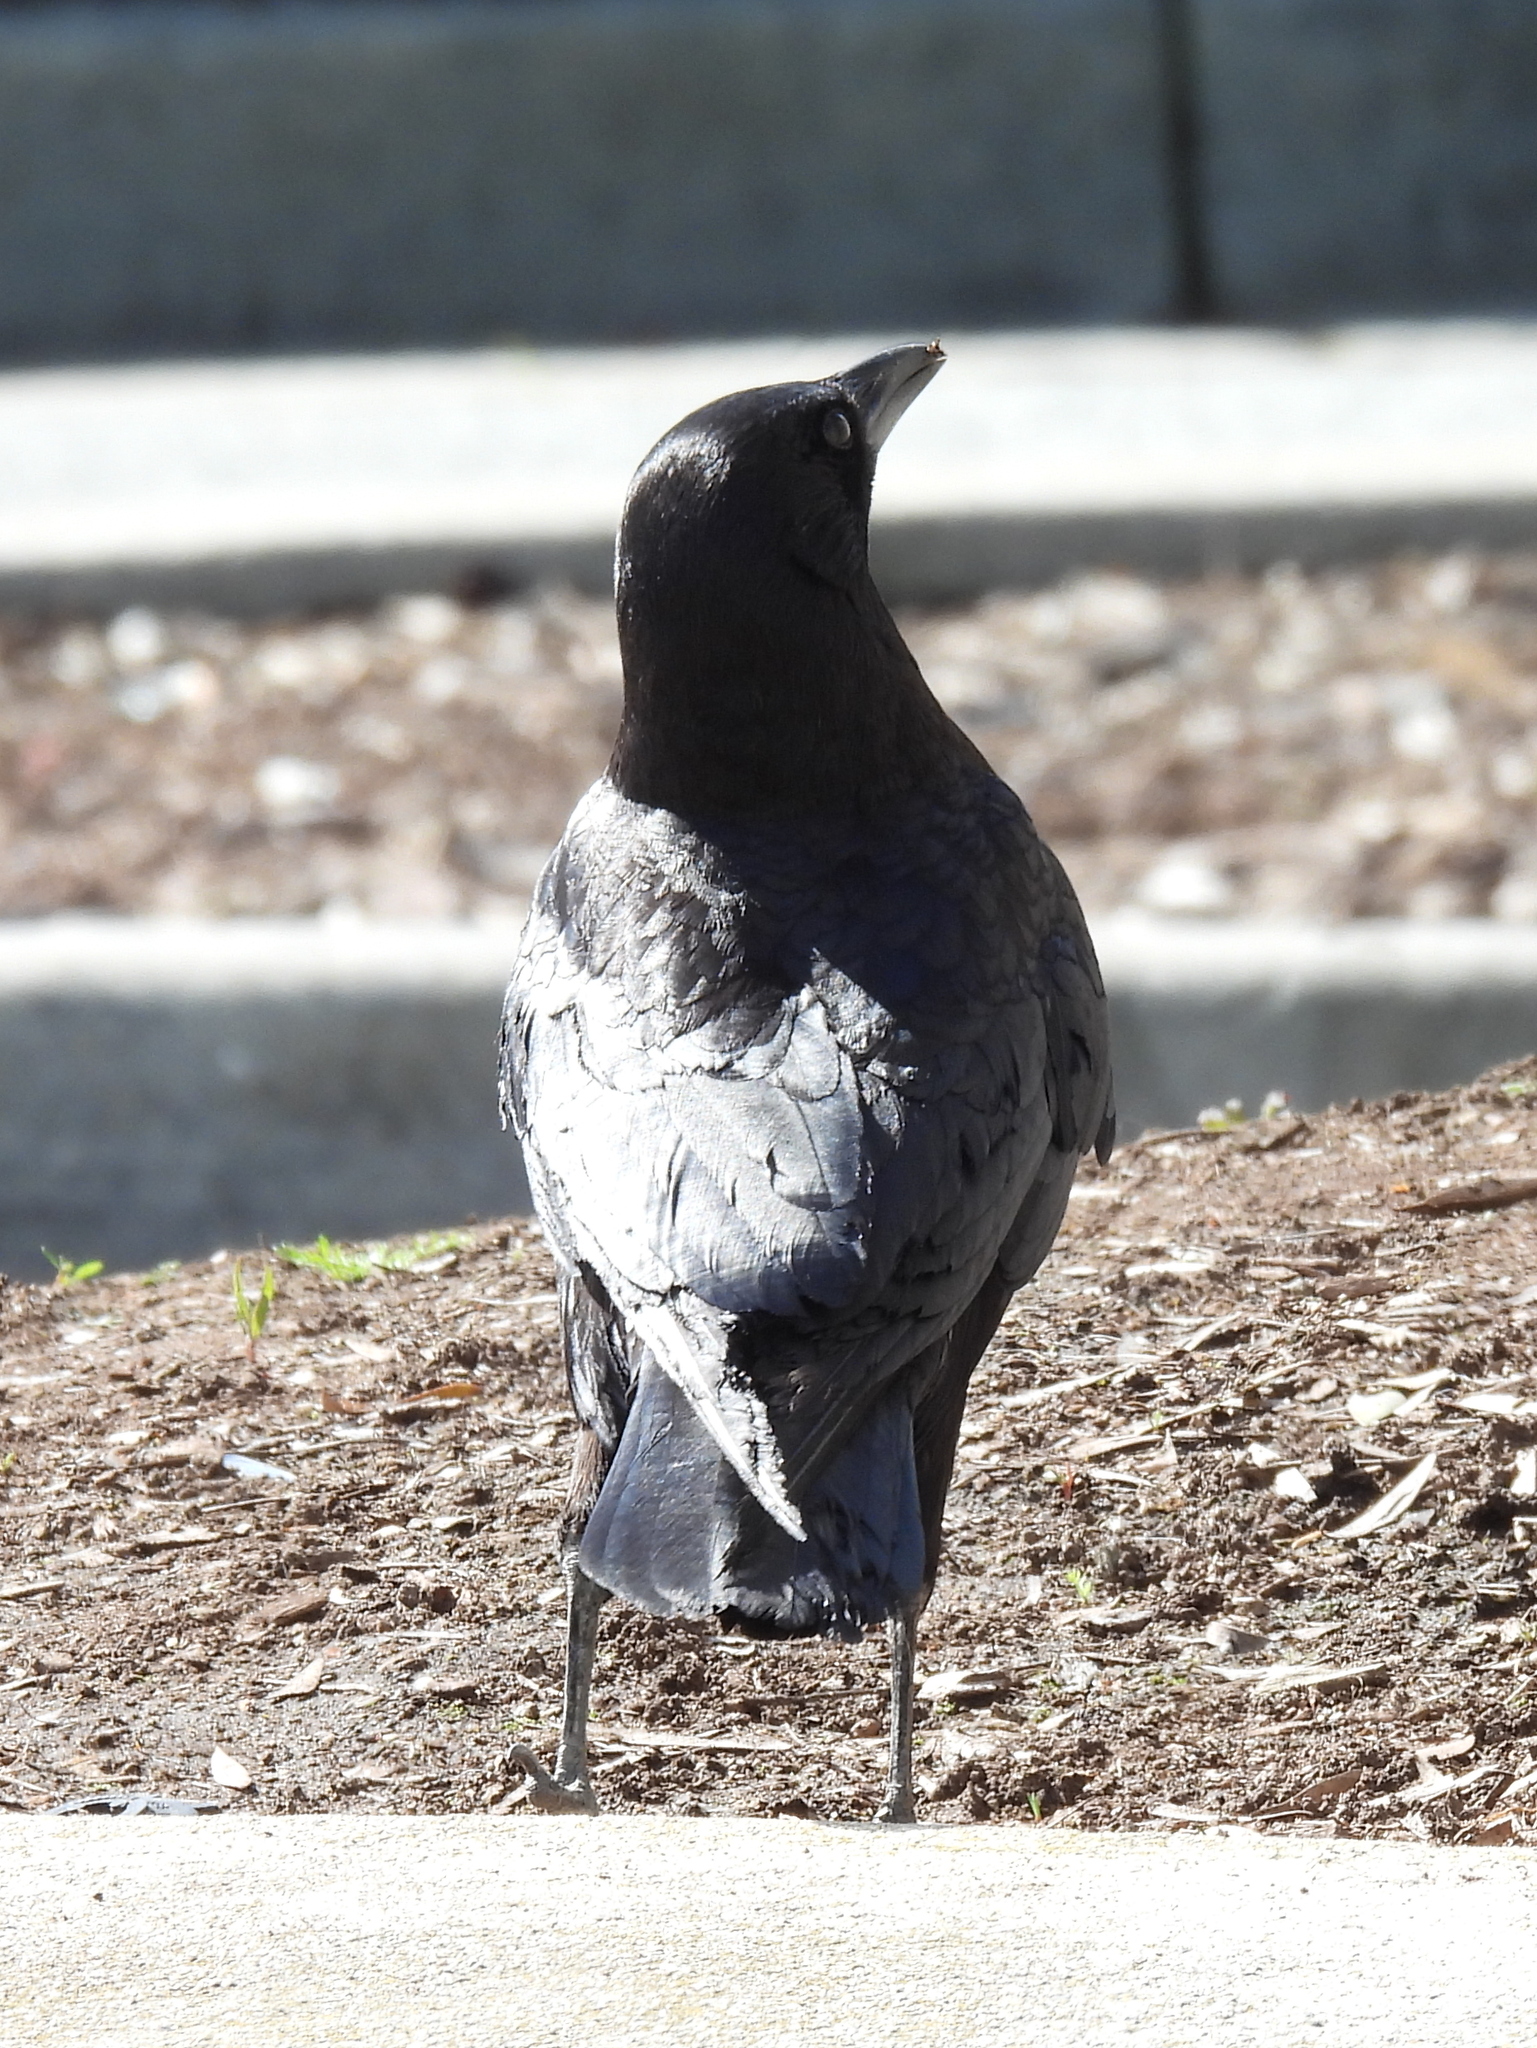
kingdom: Animalia
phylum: Chordata
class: Aves
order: Passeriformes
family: Corvidae
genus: Corvus
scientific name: Corvus brachyrhynchos
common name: American crow
